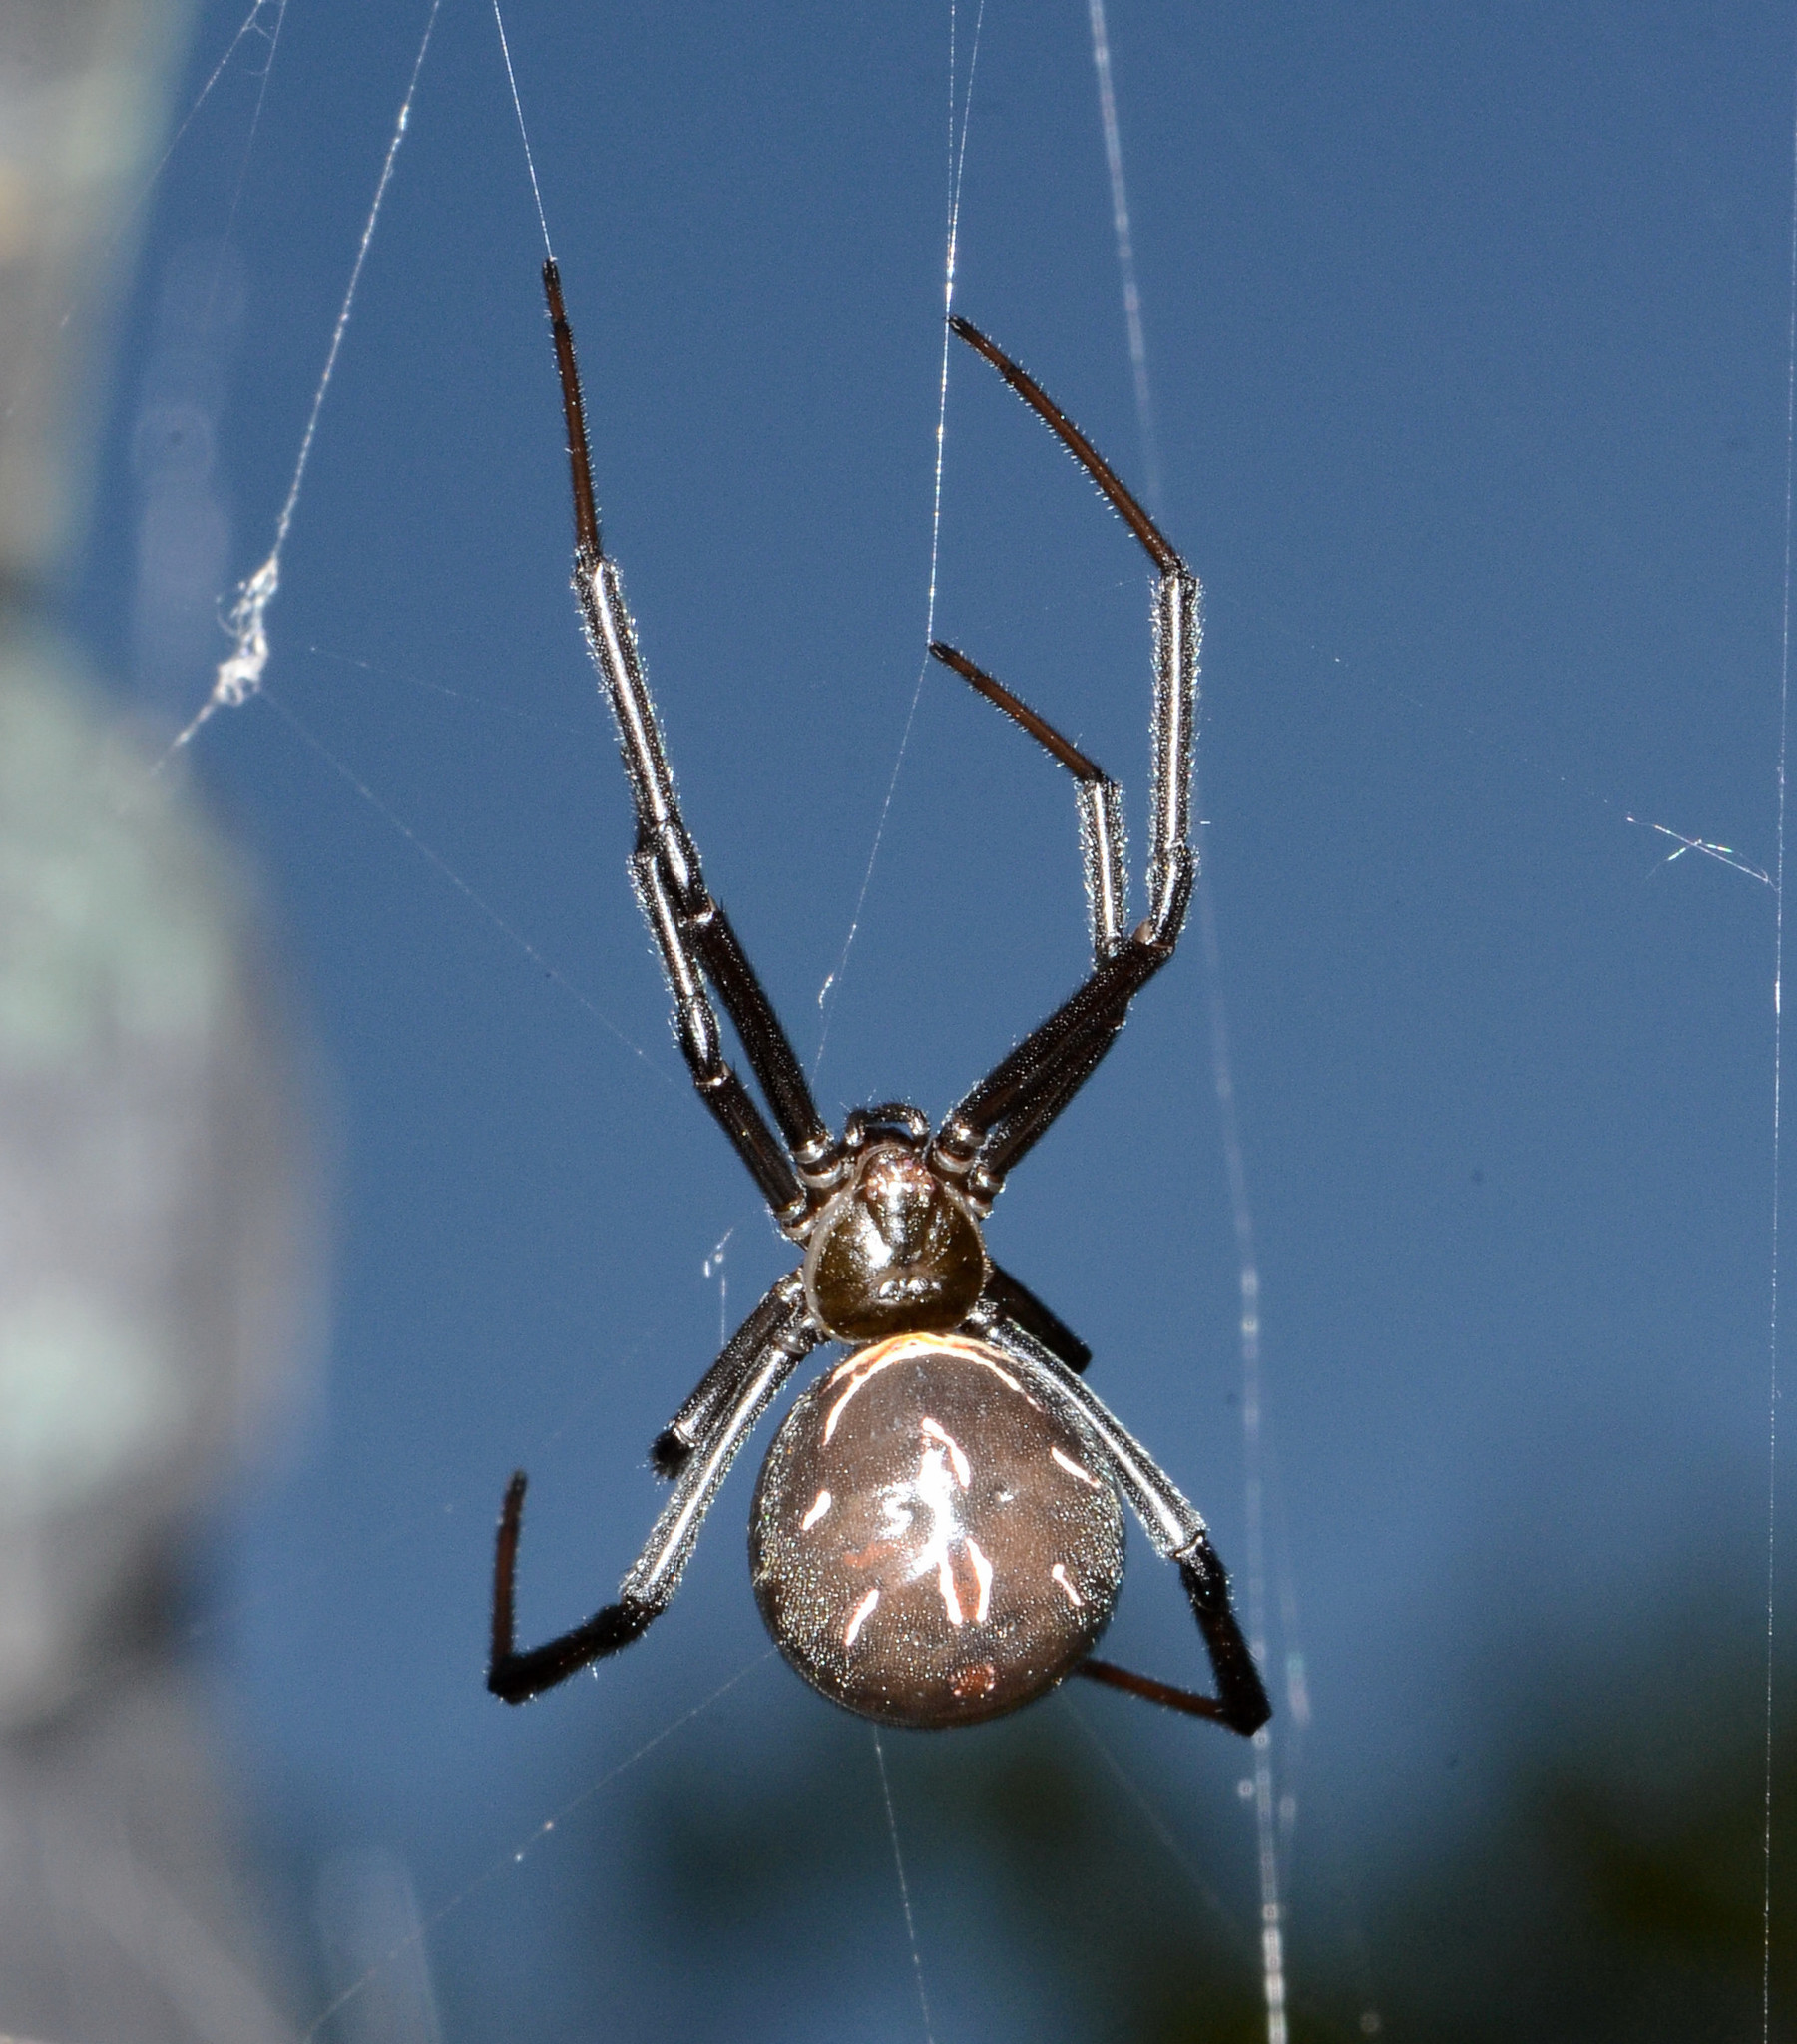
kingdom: Animalia
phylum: Arthropoda
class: Arachnida
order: Araneae
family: Theridiidae
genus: Latrodectus
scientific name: Latrodectus hesperus
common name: Western black widow
